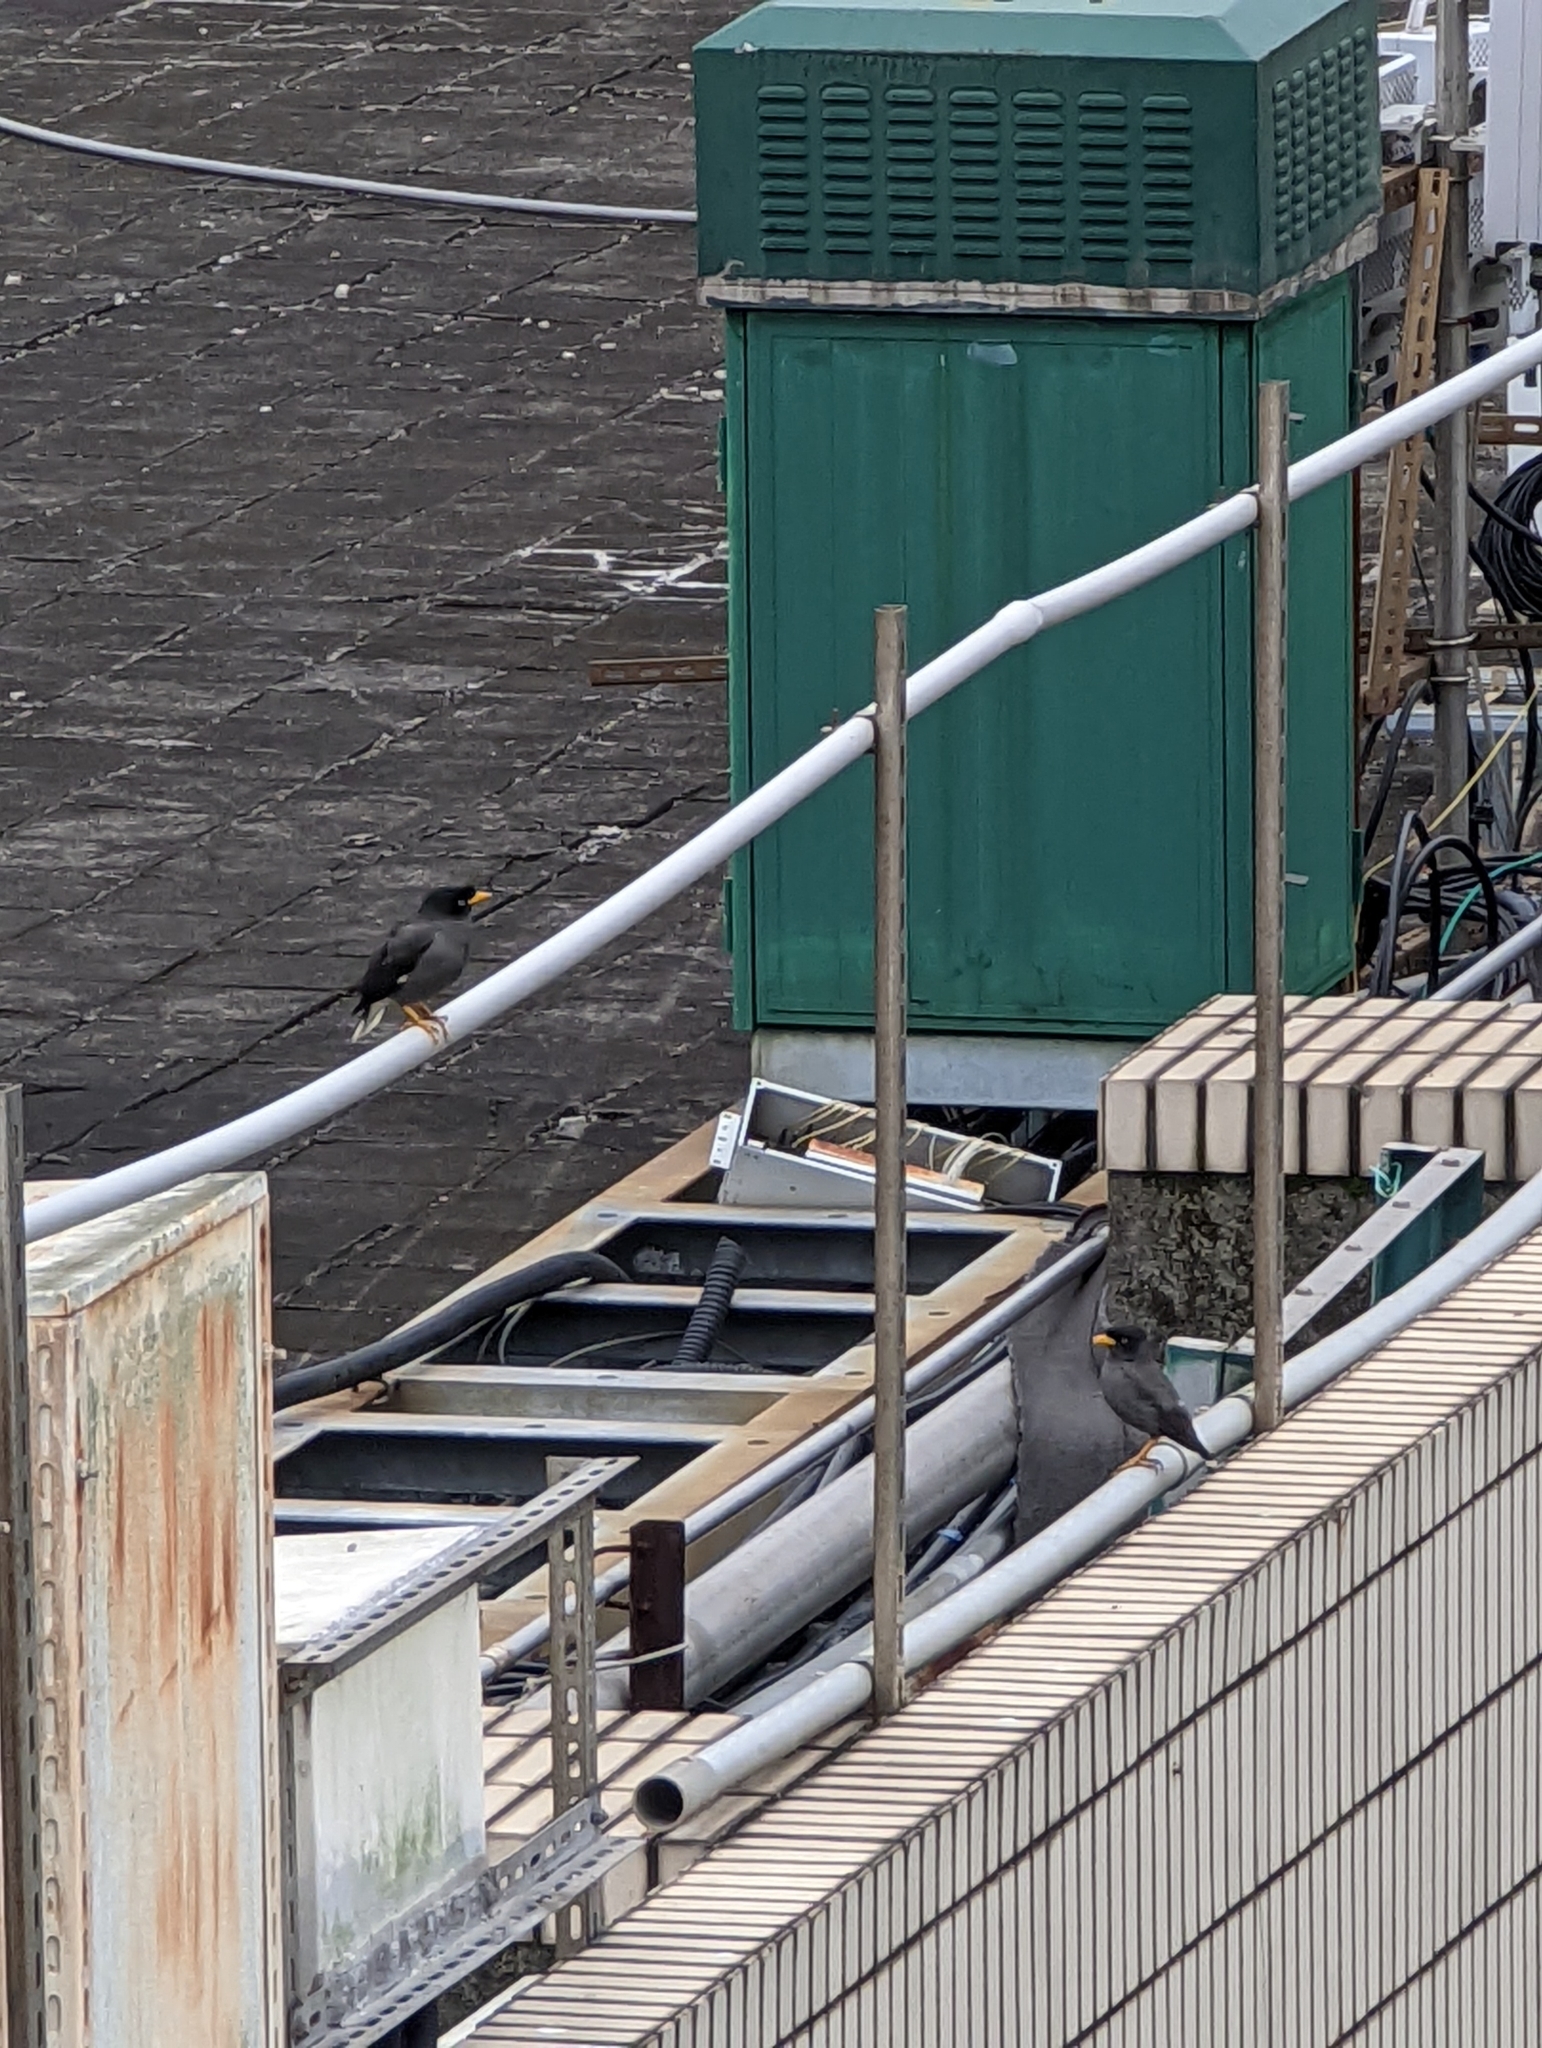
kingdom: Animalia
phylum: Chordata
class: Aves
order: Passeriformes
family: Sturnidae
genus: Acridotheres
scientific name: Acridotheres javanicus
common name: Javan myna
